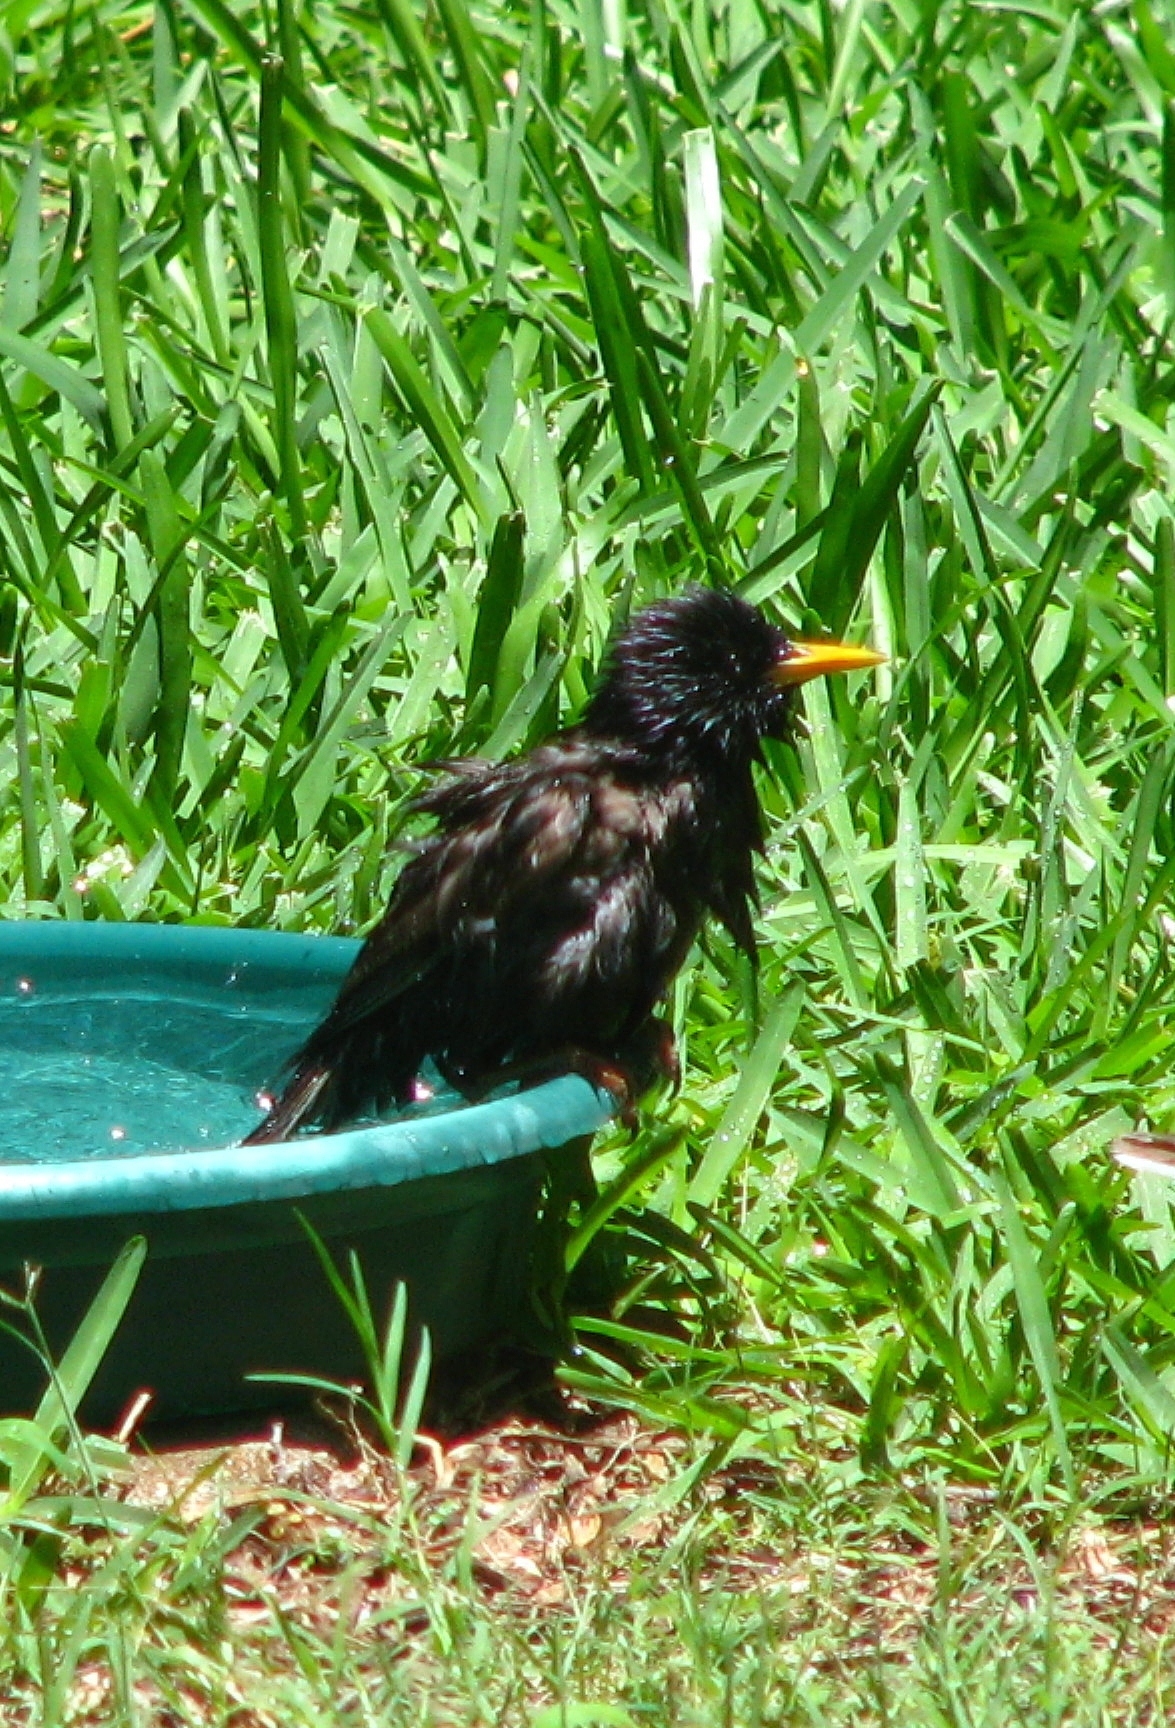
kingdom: Animalia
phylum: Chordata
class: Aves
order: Passeriformes
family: Sturnidae
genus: Sturnus
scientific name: Sturnus vulgaris
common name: Common starling
